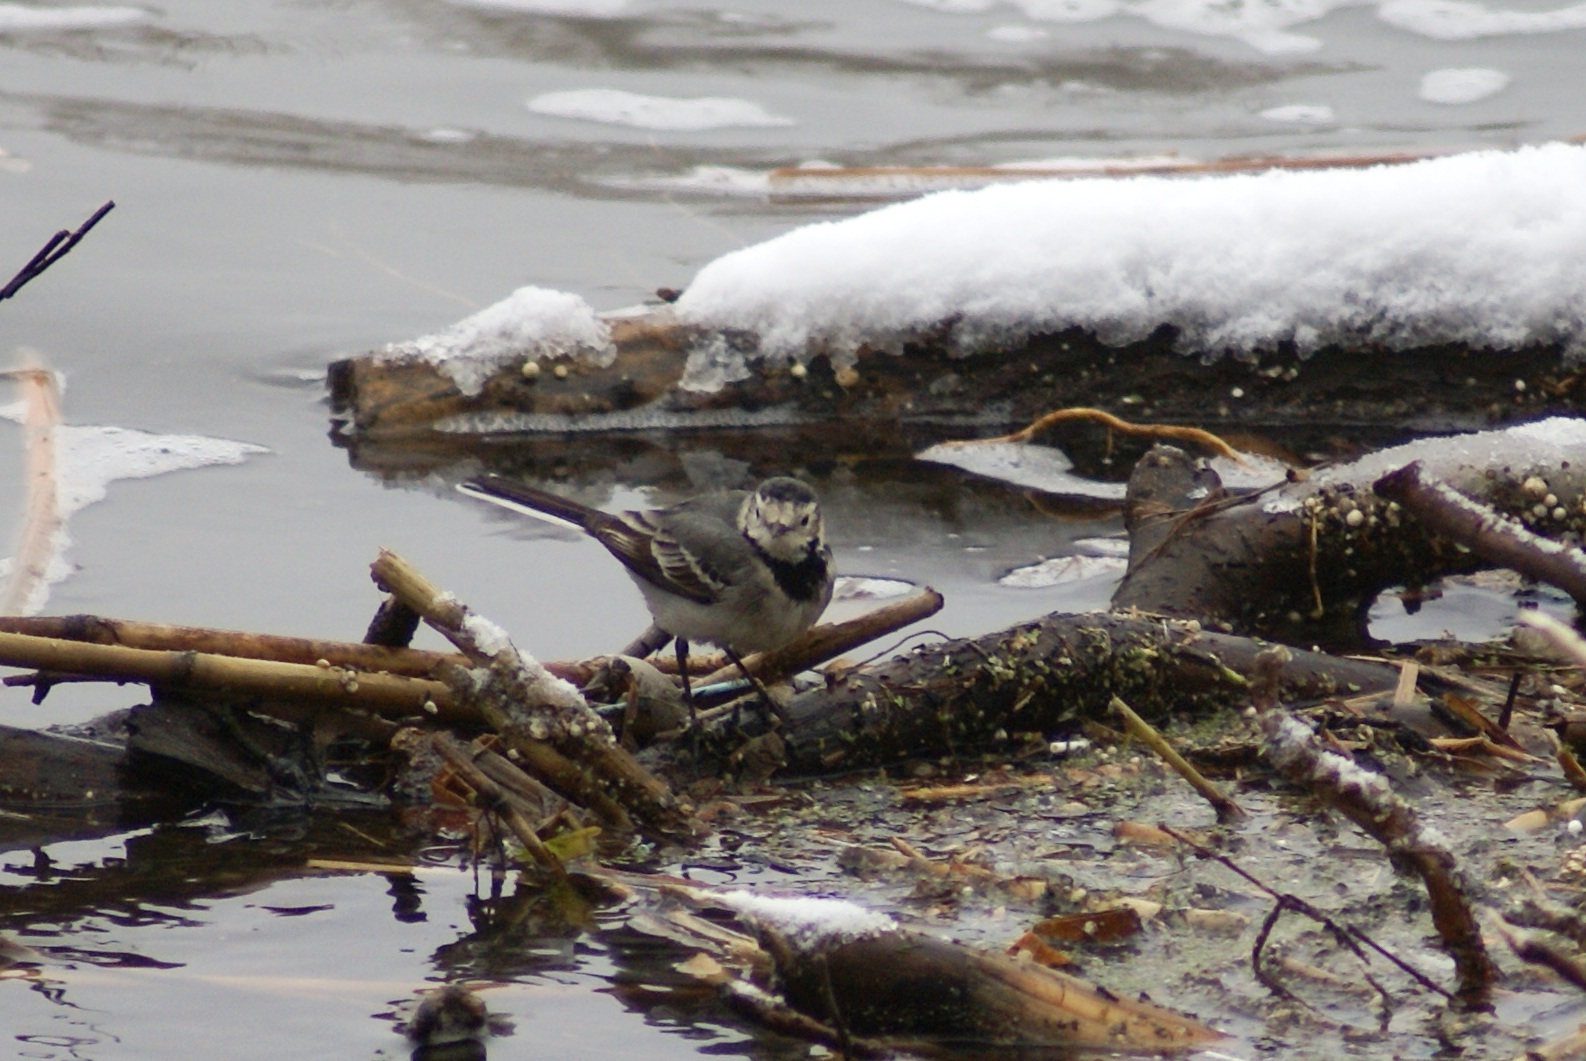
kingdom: Animalia
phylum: Chordata
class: Aves
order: Passeriformes
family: Motacillidae
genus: Motacilla
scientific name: Motacilla alba
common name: White wagtail
